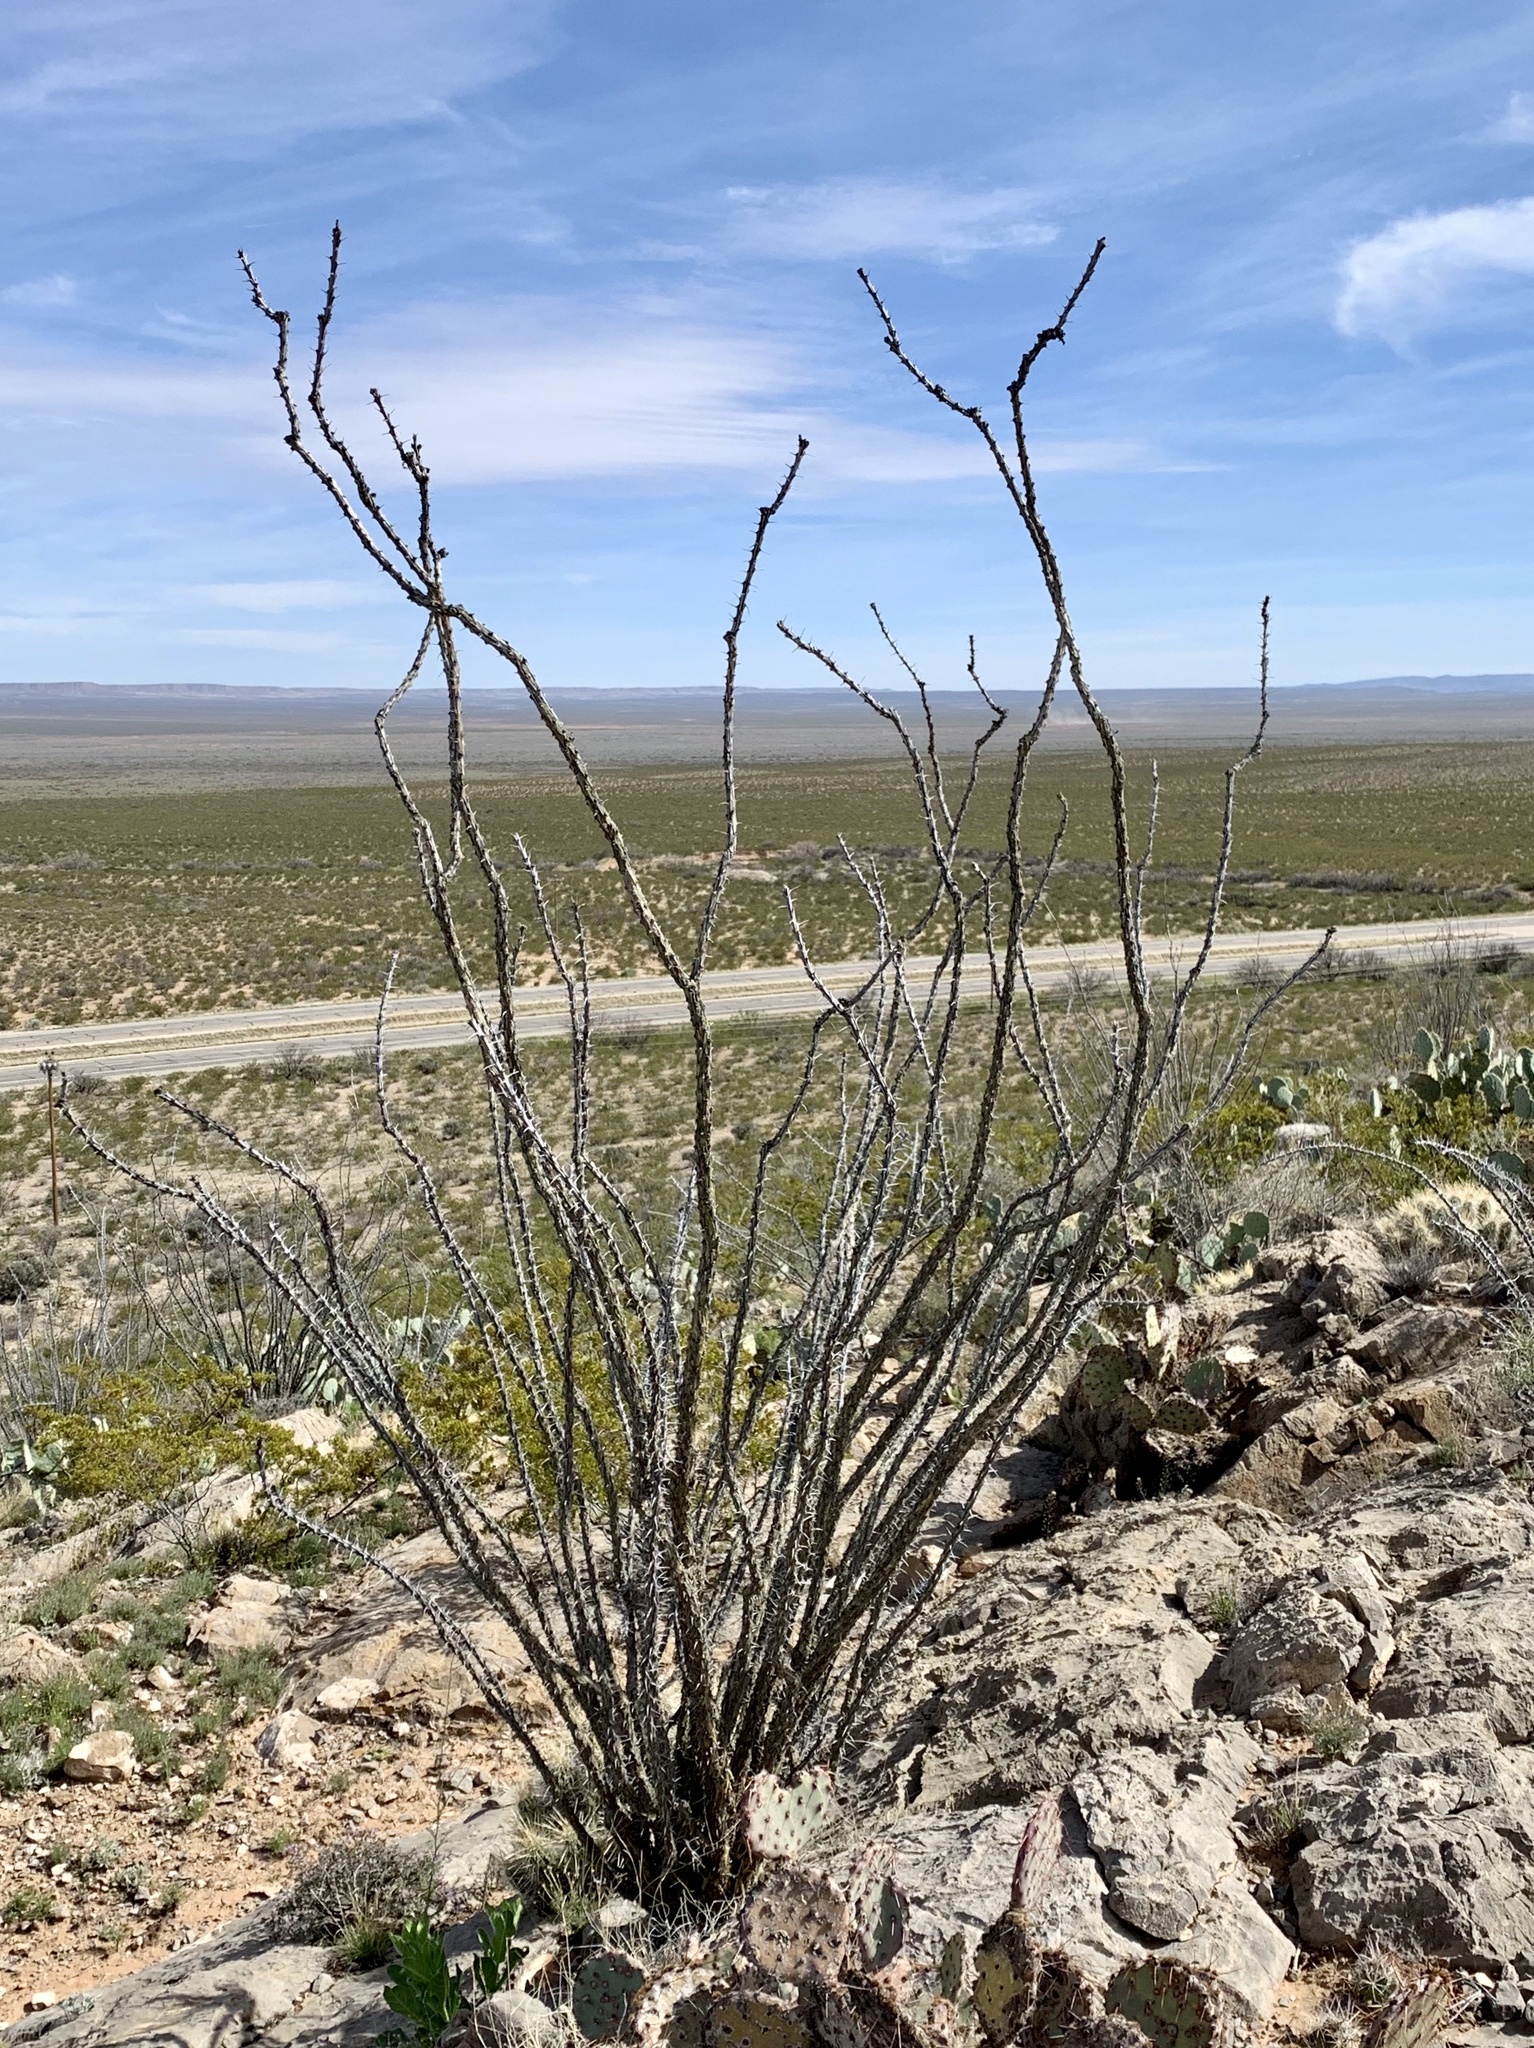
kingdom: Plantae
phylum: Tracheophyta
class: Magnoliopsida
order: Ericales
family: Fouquieriaceae
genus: Fouquieria
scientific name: Fouquieria splendens
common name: Vine-cactus
